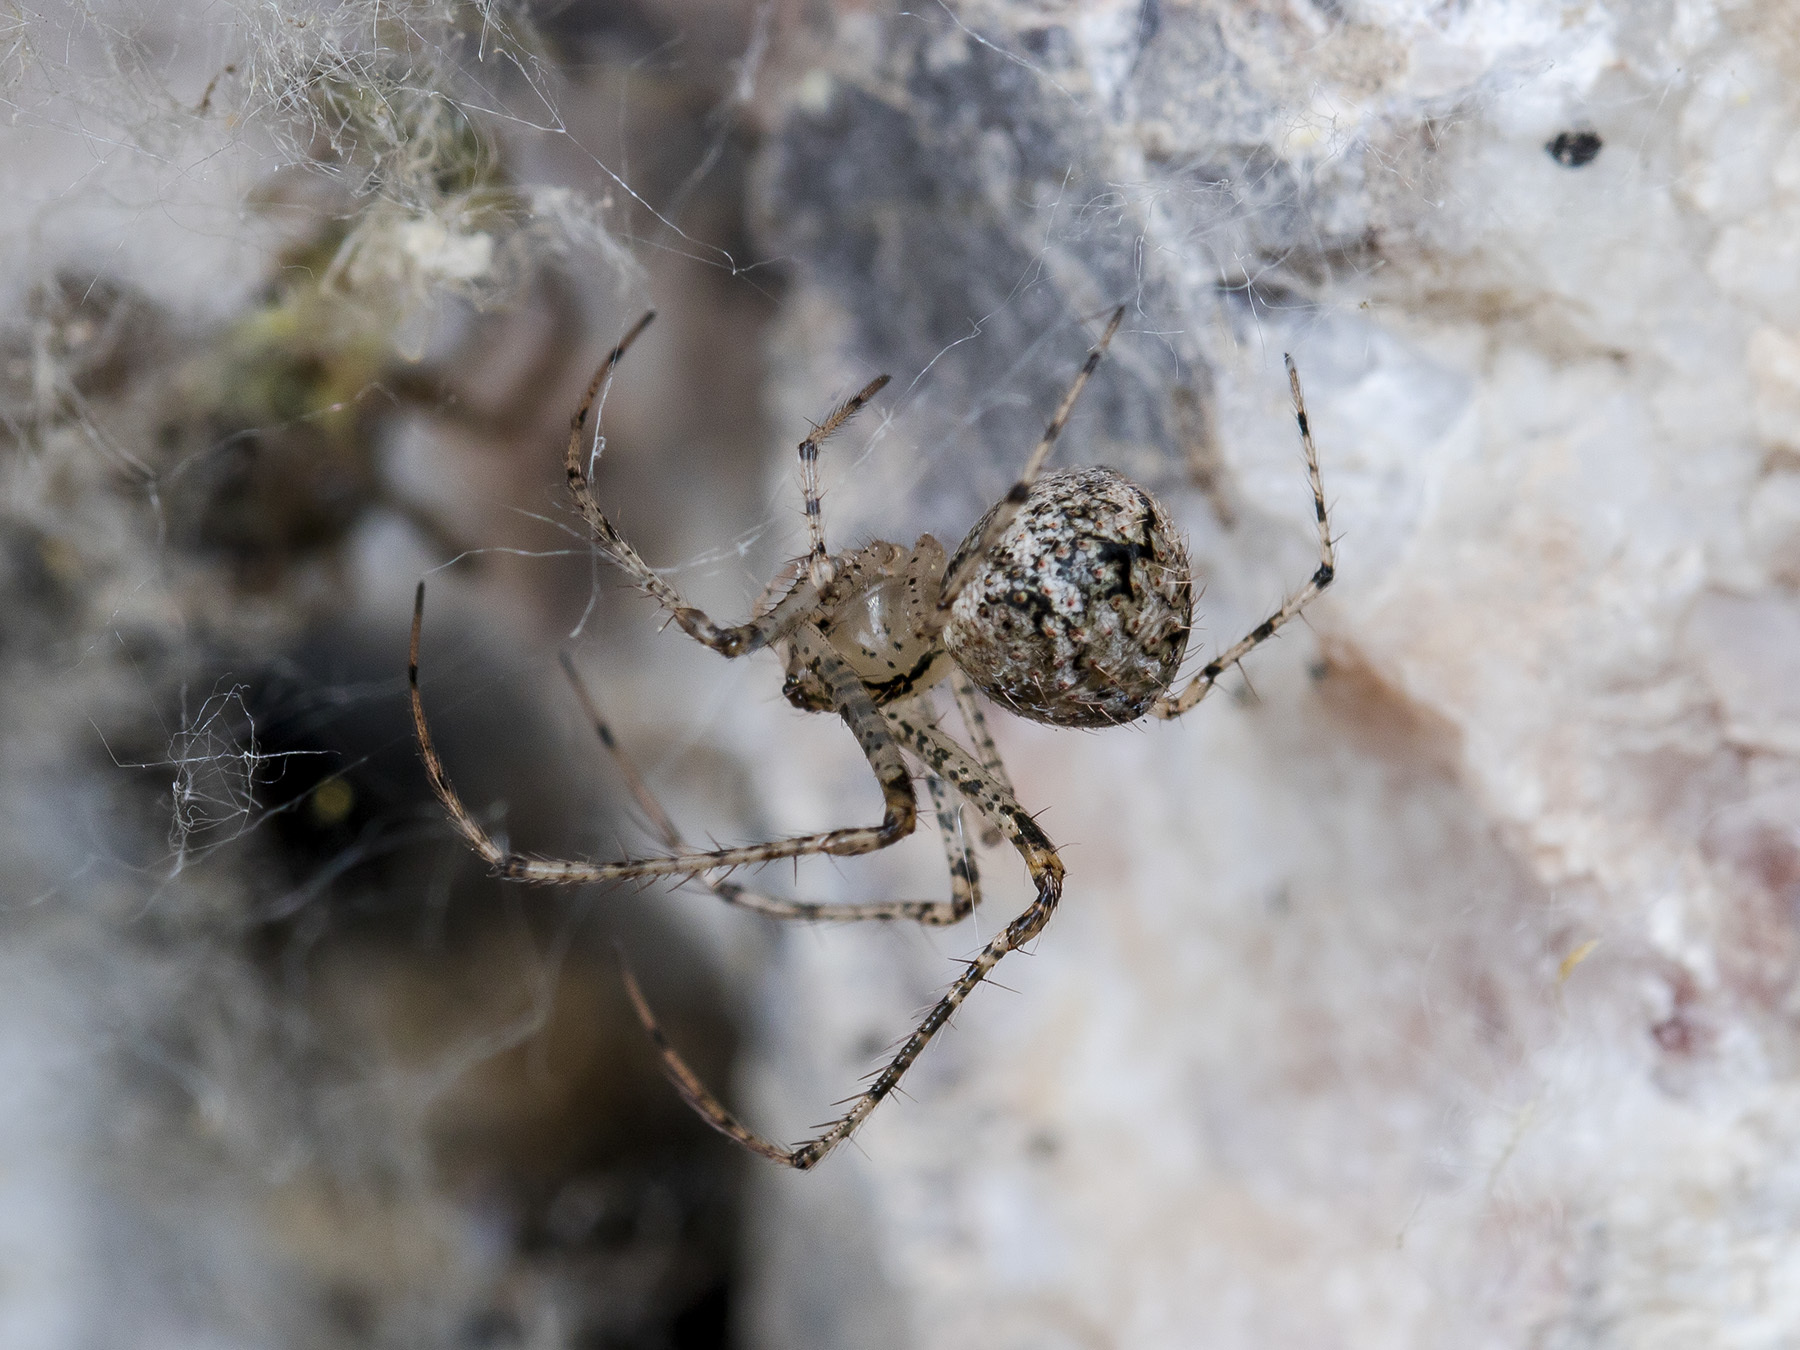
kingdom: Animalia
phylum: Arthropoda
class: Arachnida
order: Araneae
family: Mimetidae
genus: Mimetus
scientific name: Mimetus laevigatus
